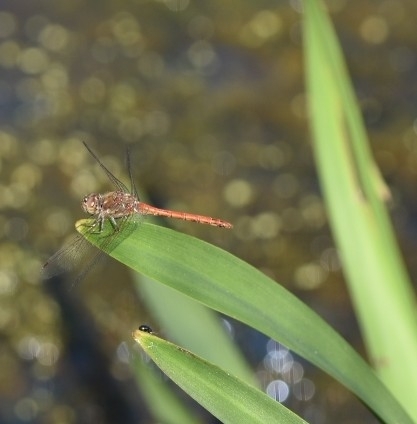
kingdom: Animalia
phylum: Arthropoda
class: Insecta
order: Odonata
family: Libellulidae
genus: Sympetrum
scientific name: Sympetrum striolatum
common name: Common darter
